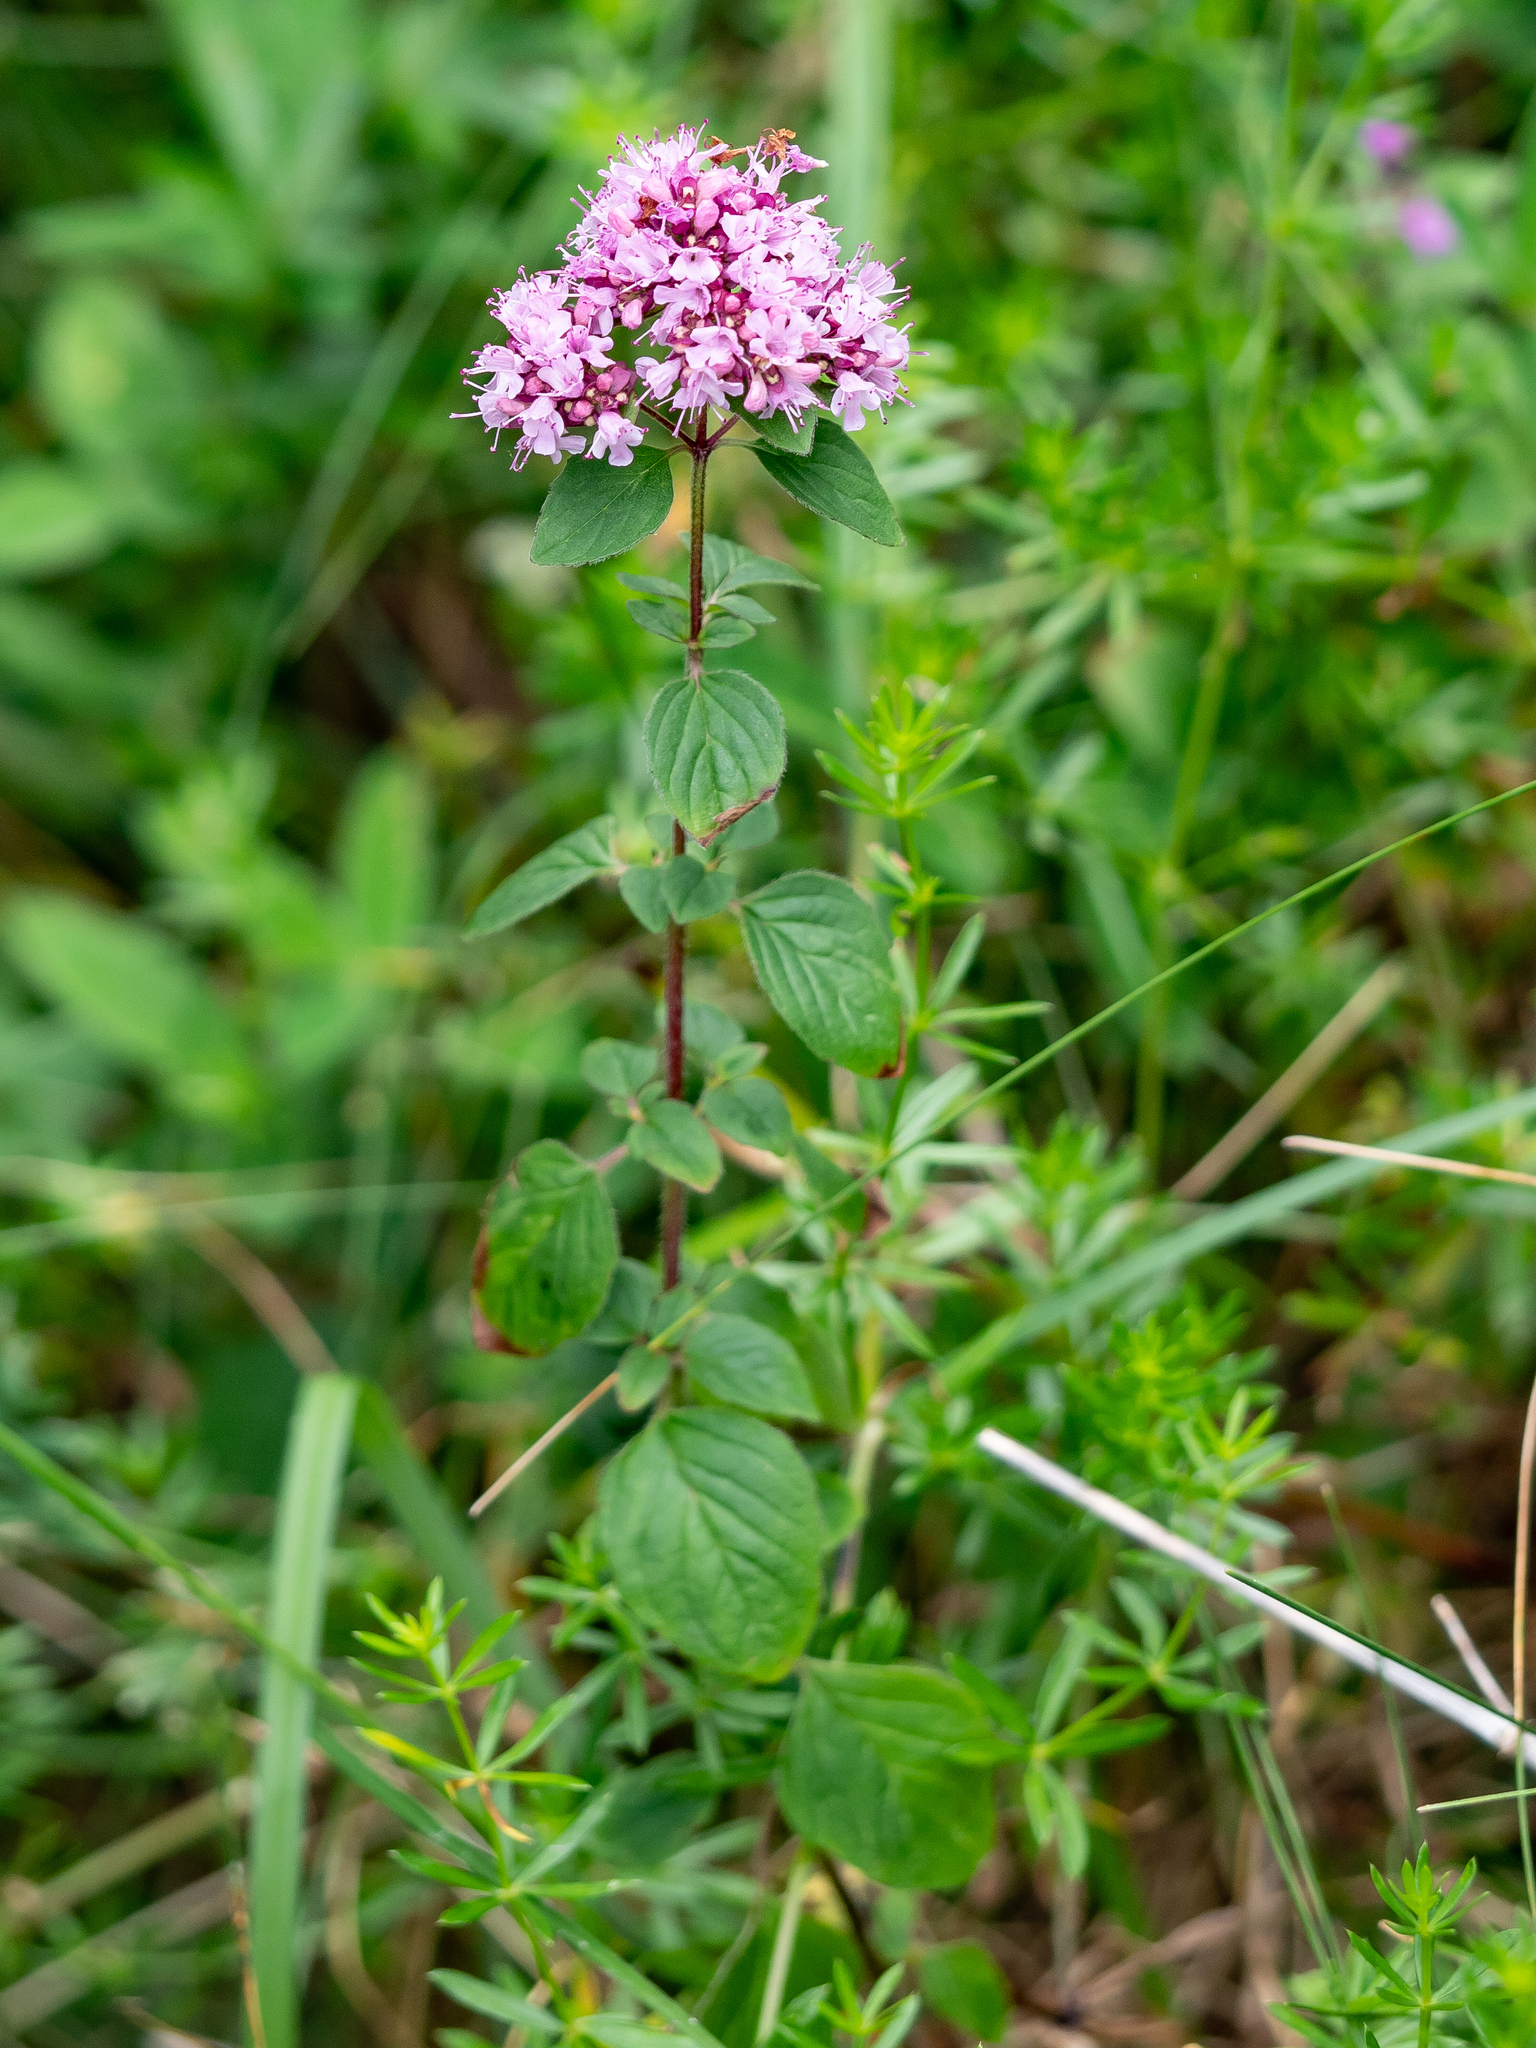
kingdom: Plantae
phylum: Tracheophyta
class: Magnoliopsida
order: Lamiales
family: Lamiaceae
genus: Origanum
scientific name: Origanum vulgare
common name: Wild marjoram
